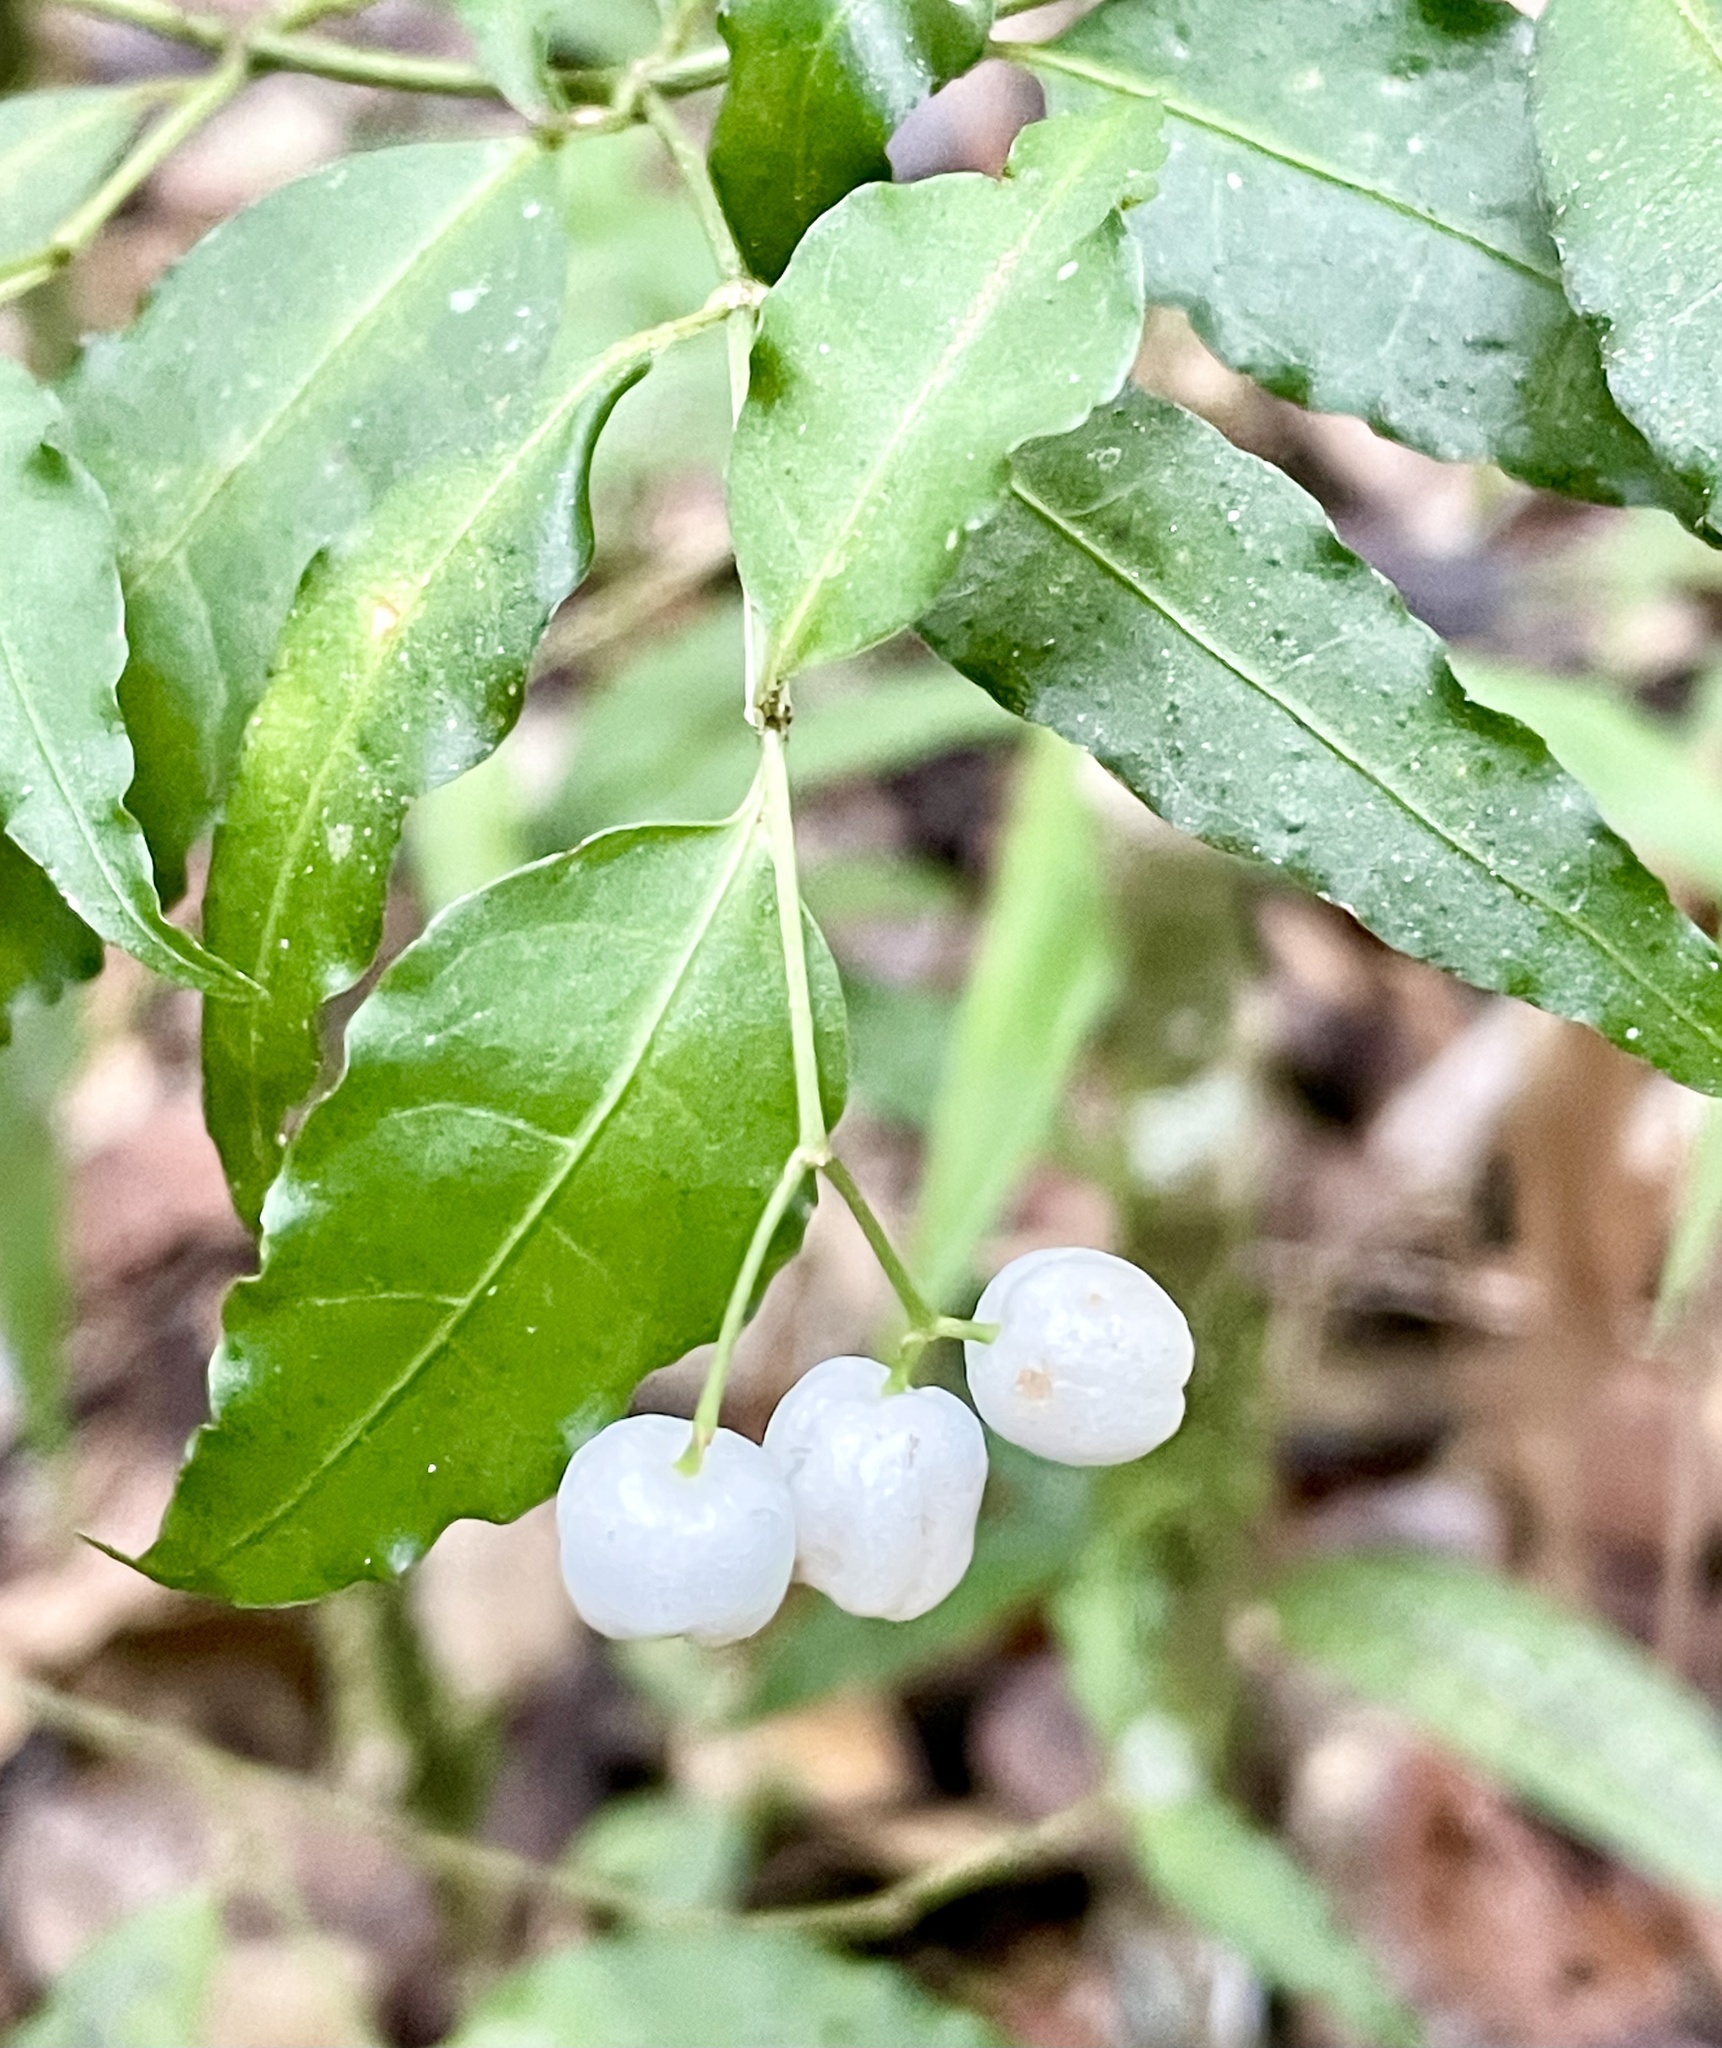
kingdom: Plantae
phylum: Tracheophyta
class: Magnoliopsida
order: Gentianales
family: Rubiaceae
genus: Psychotria
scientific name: Psychotria andevorantensis
